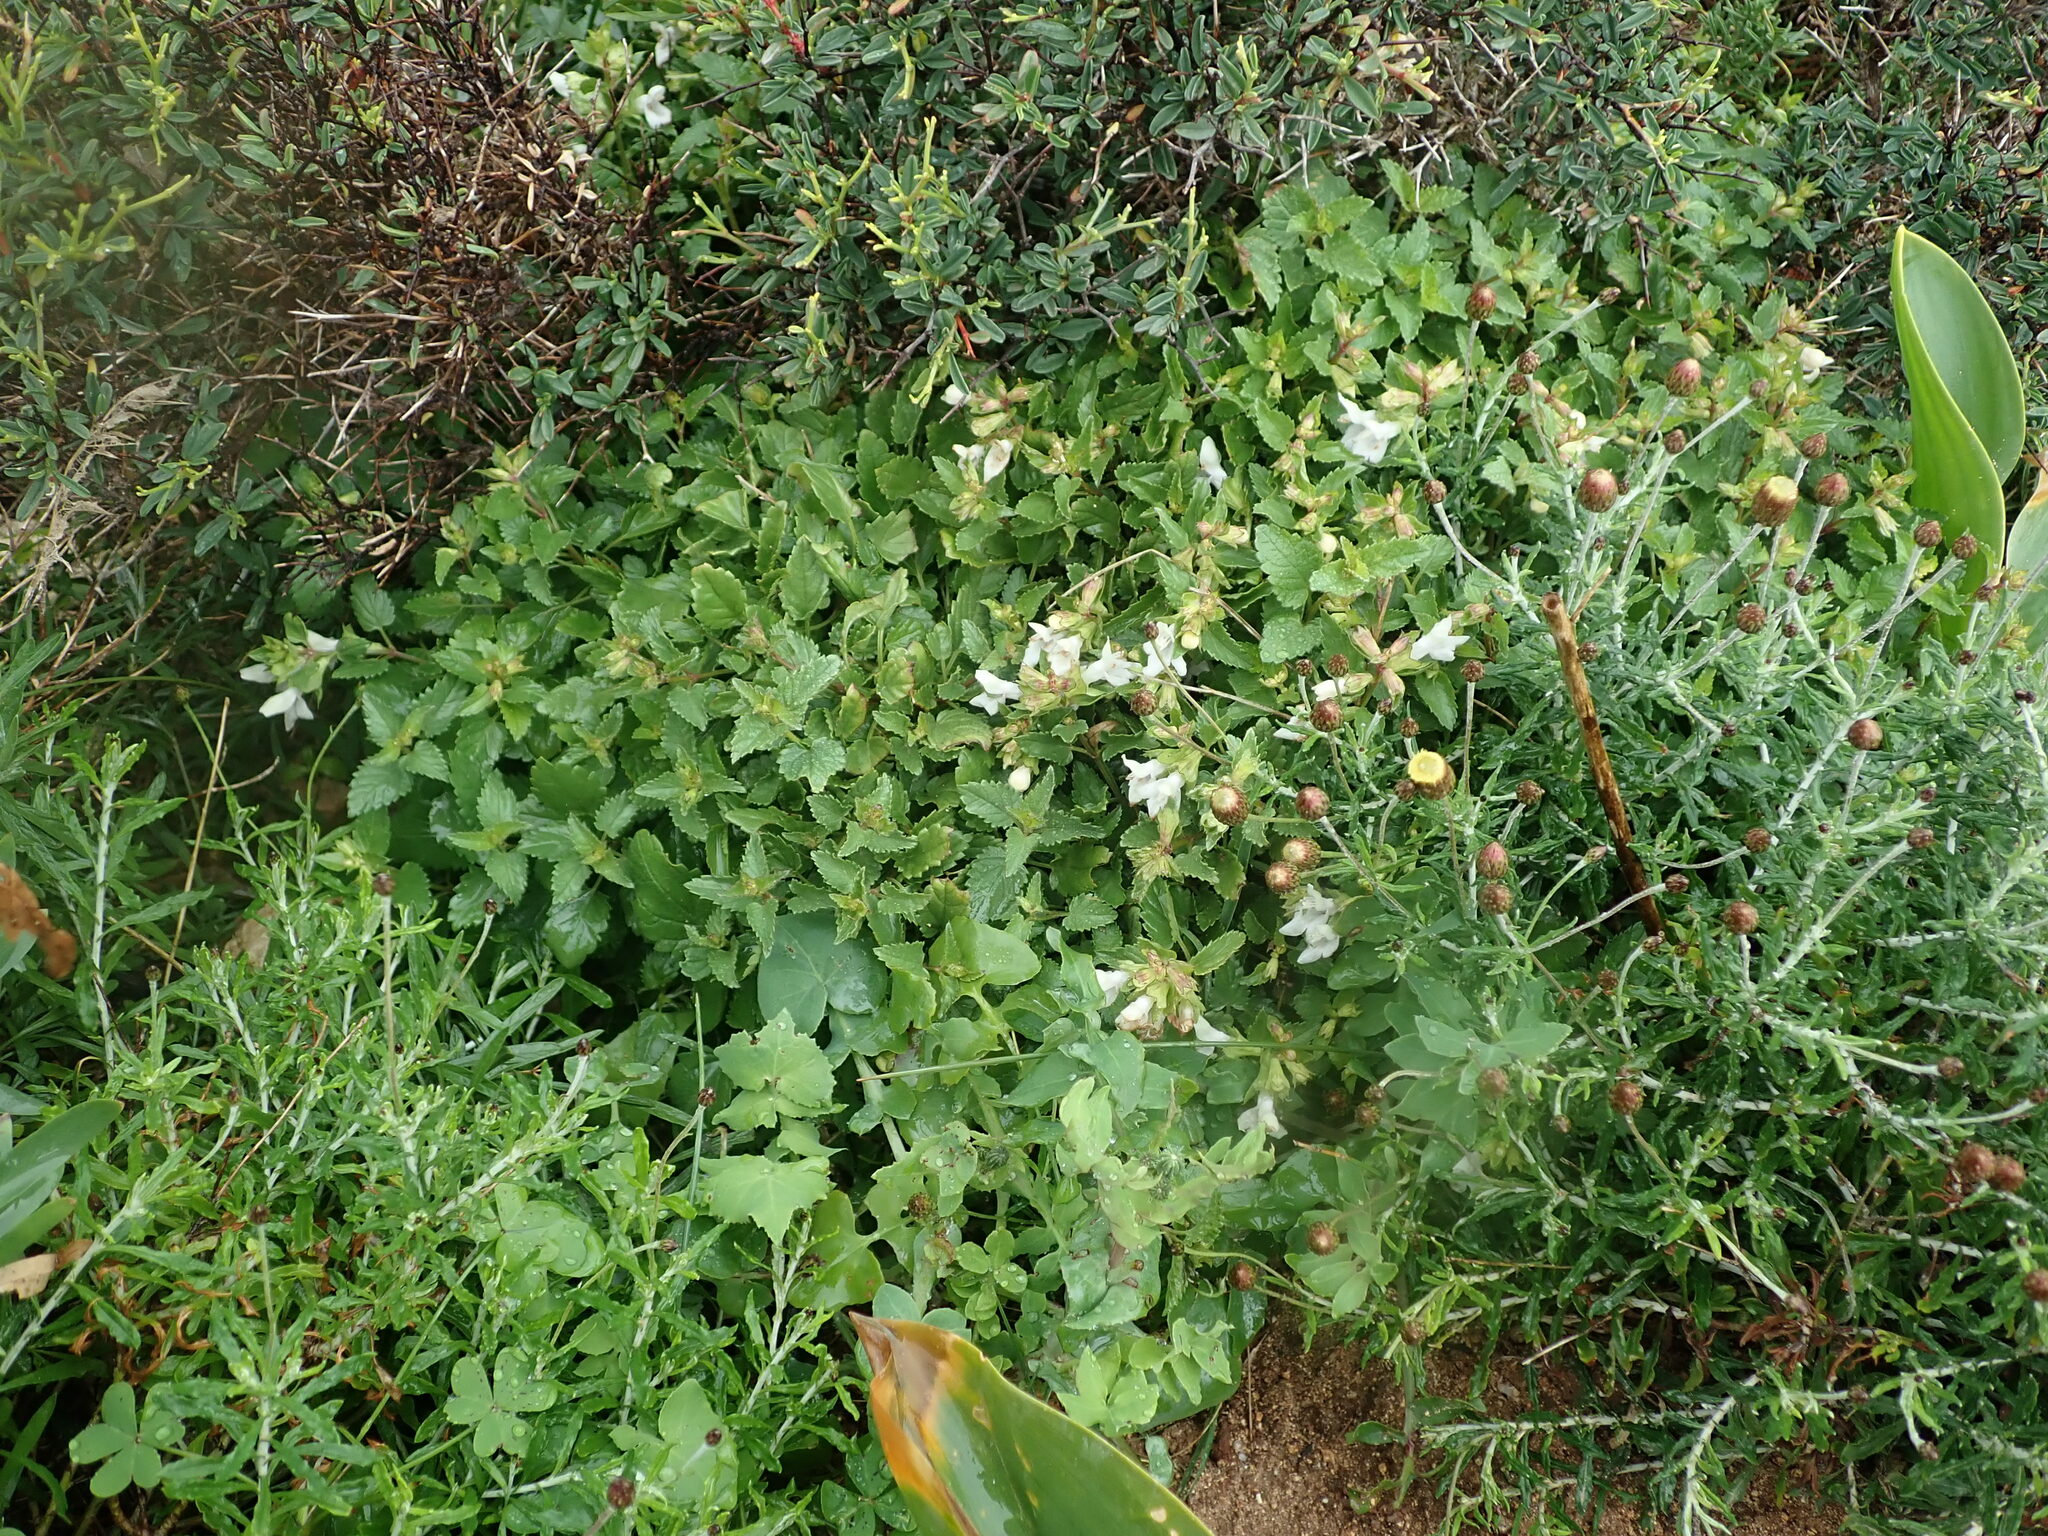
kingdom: Plantae
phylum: Tracheophyta
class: Magnoliopsida
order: Lamiales
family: Lamiaceae
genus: Prasium
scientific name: Prasium majus
